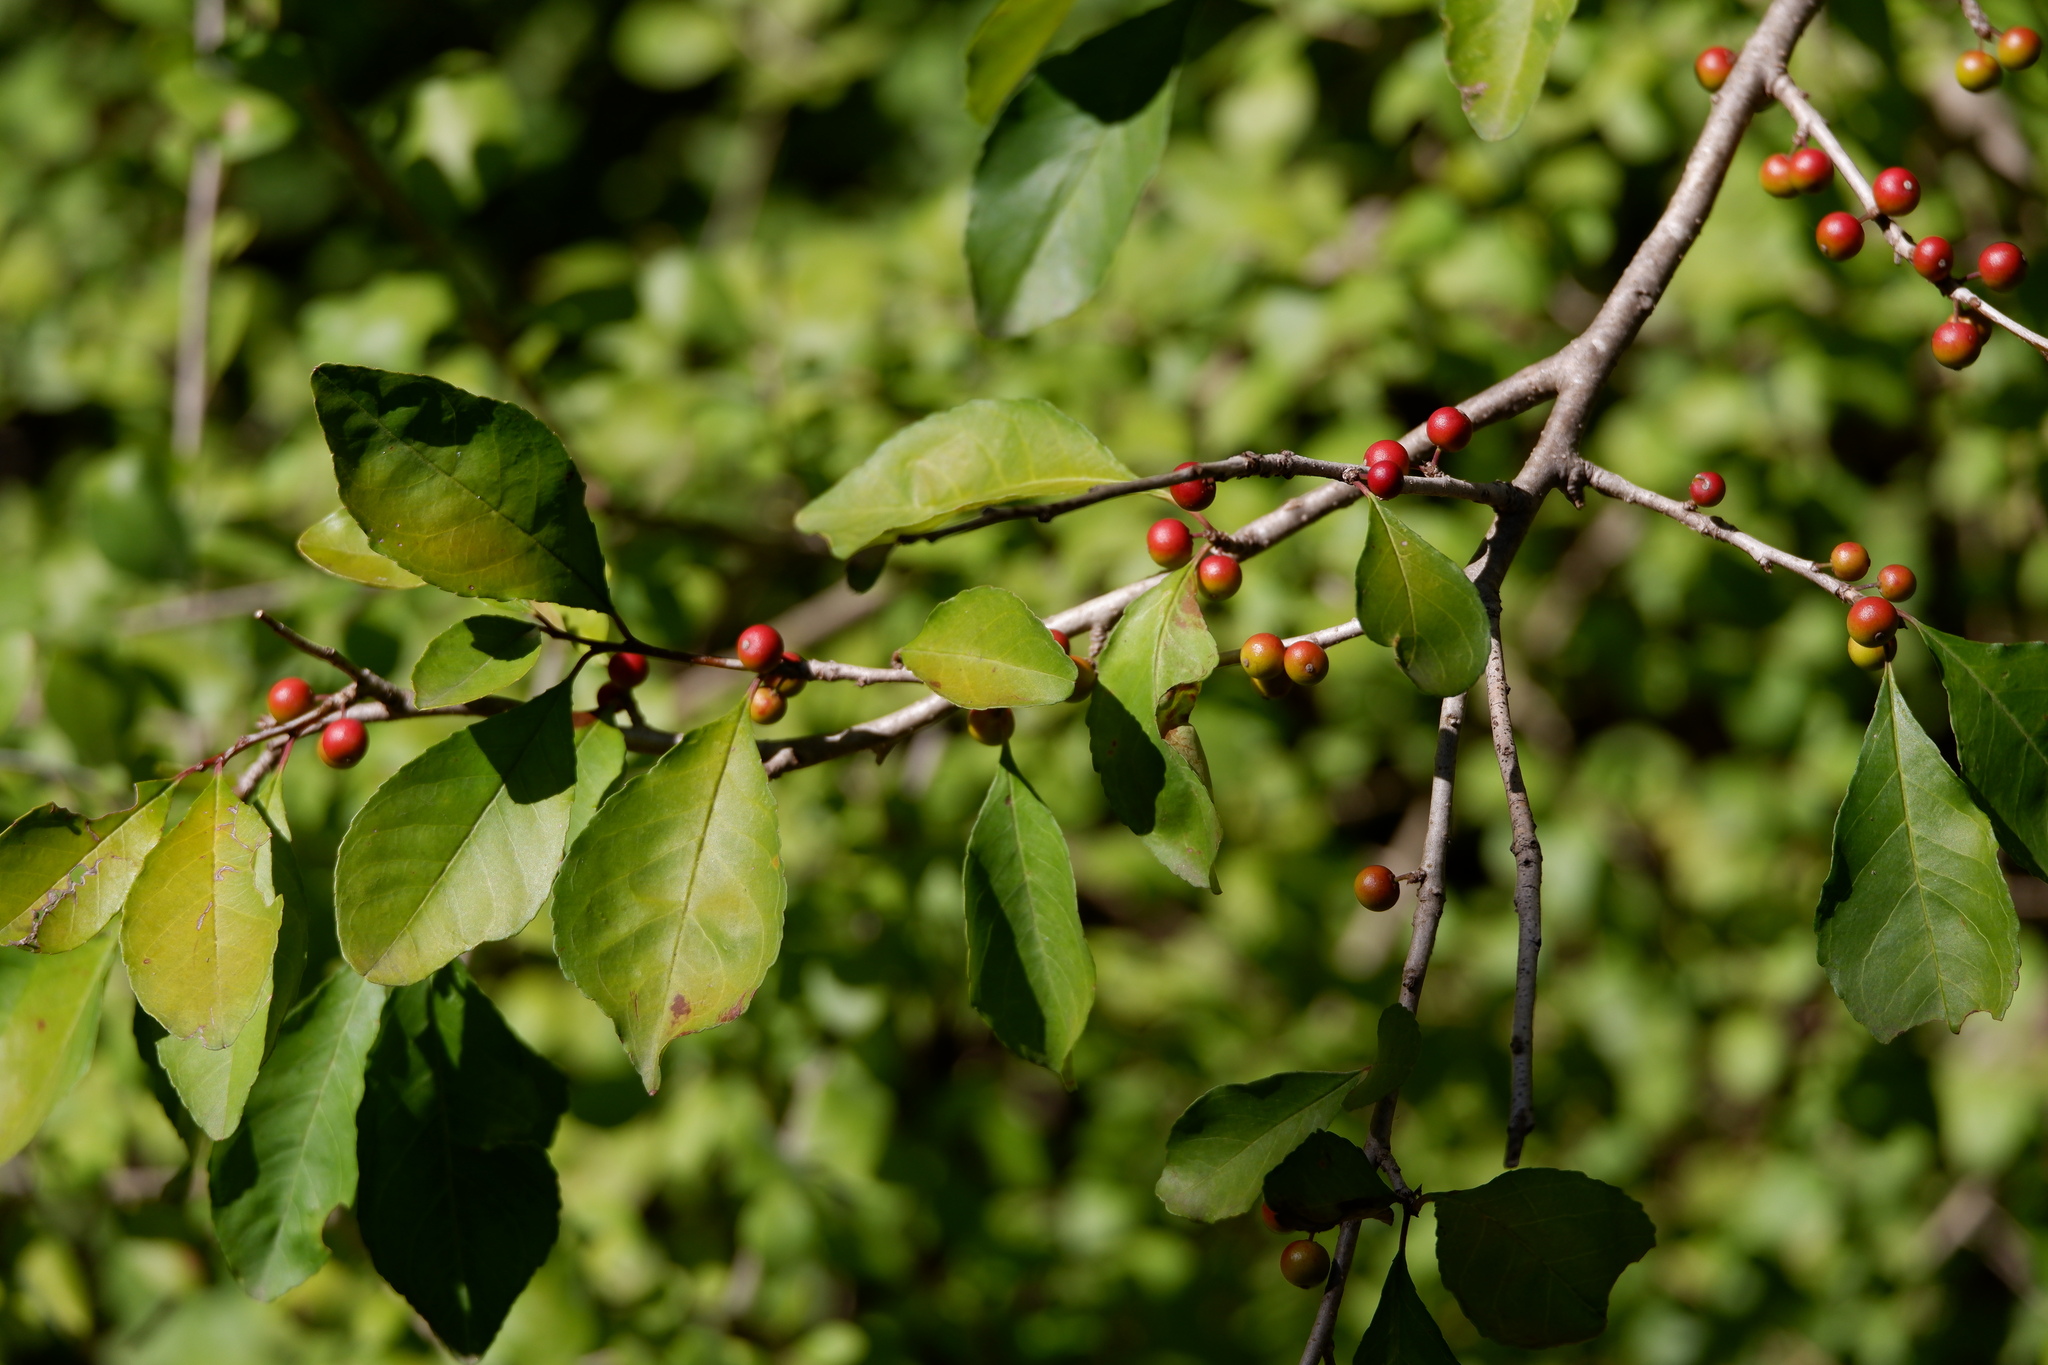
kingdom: Plantae
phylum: Tracheophyta
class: Magnoliopsida
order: Aquifoliales
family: Aquifoliaceae
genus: Ilex
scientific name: Ilex decidua
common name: Possum-haw
